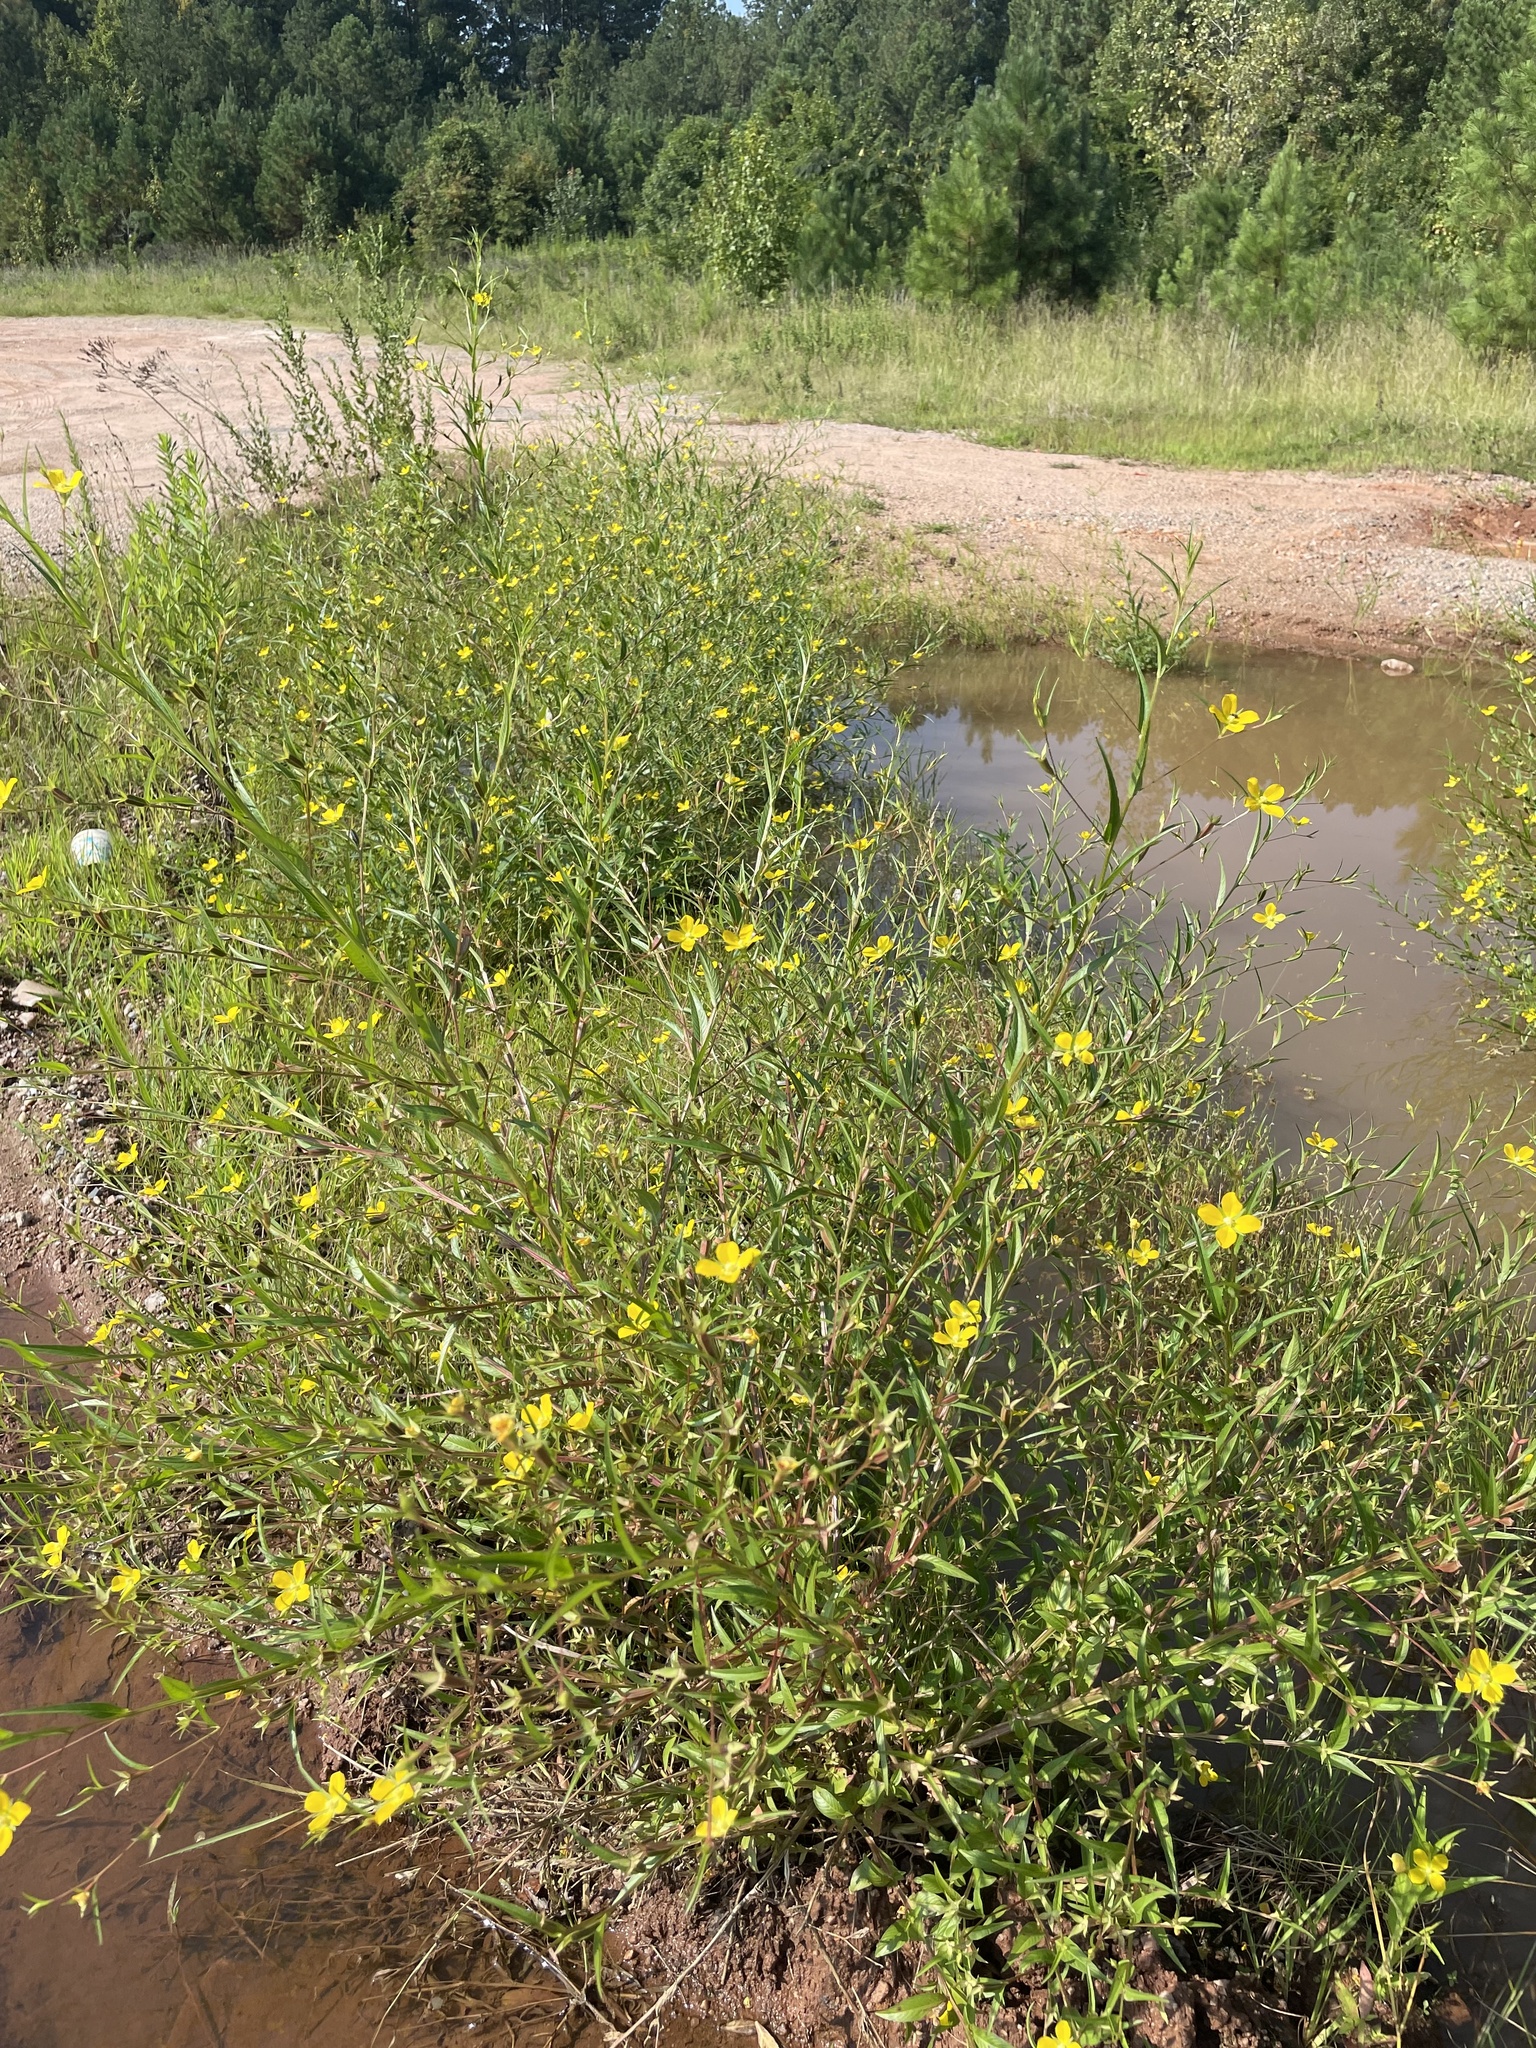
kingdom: Plantae
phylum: Tracheophyta
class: Magnoliopsida
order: Myrtales
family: Onagraceae
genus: Ludwigia
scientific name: Ludwigia decurrens
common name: Winged water-primrose
